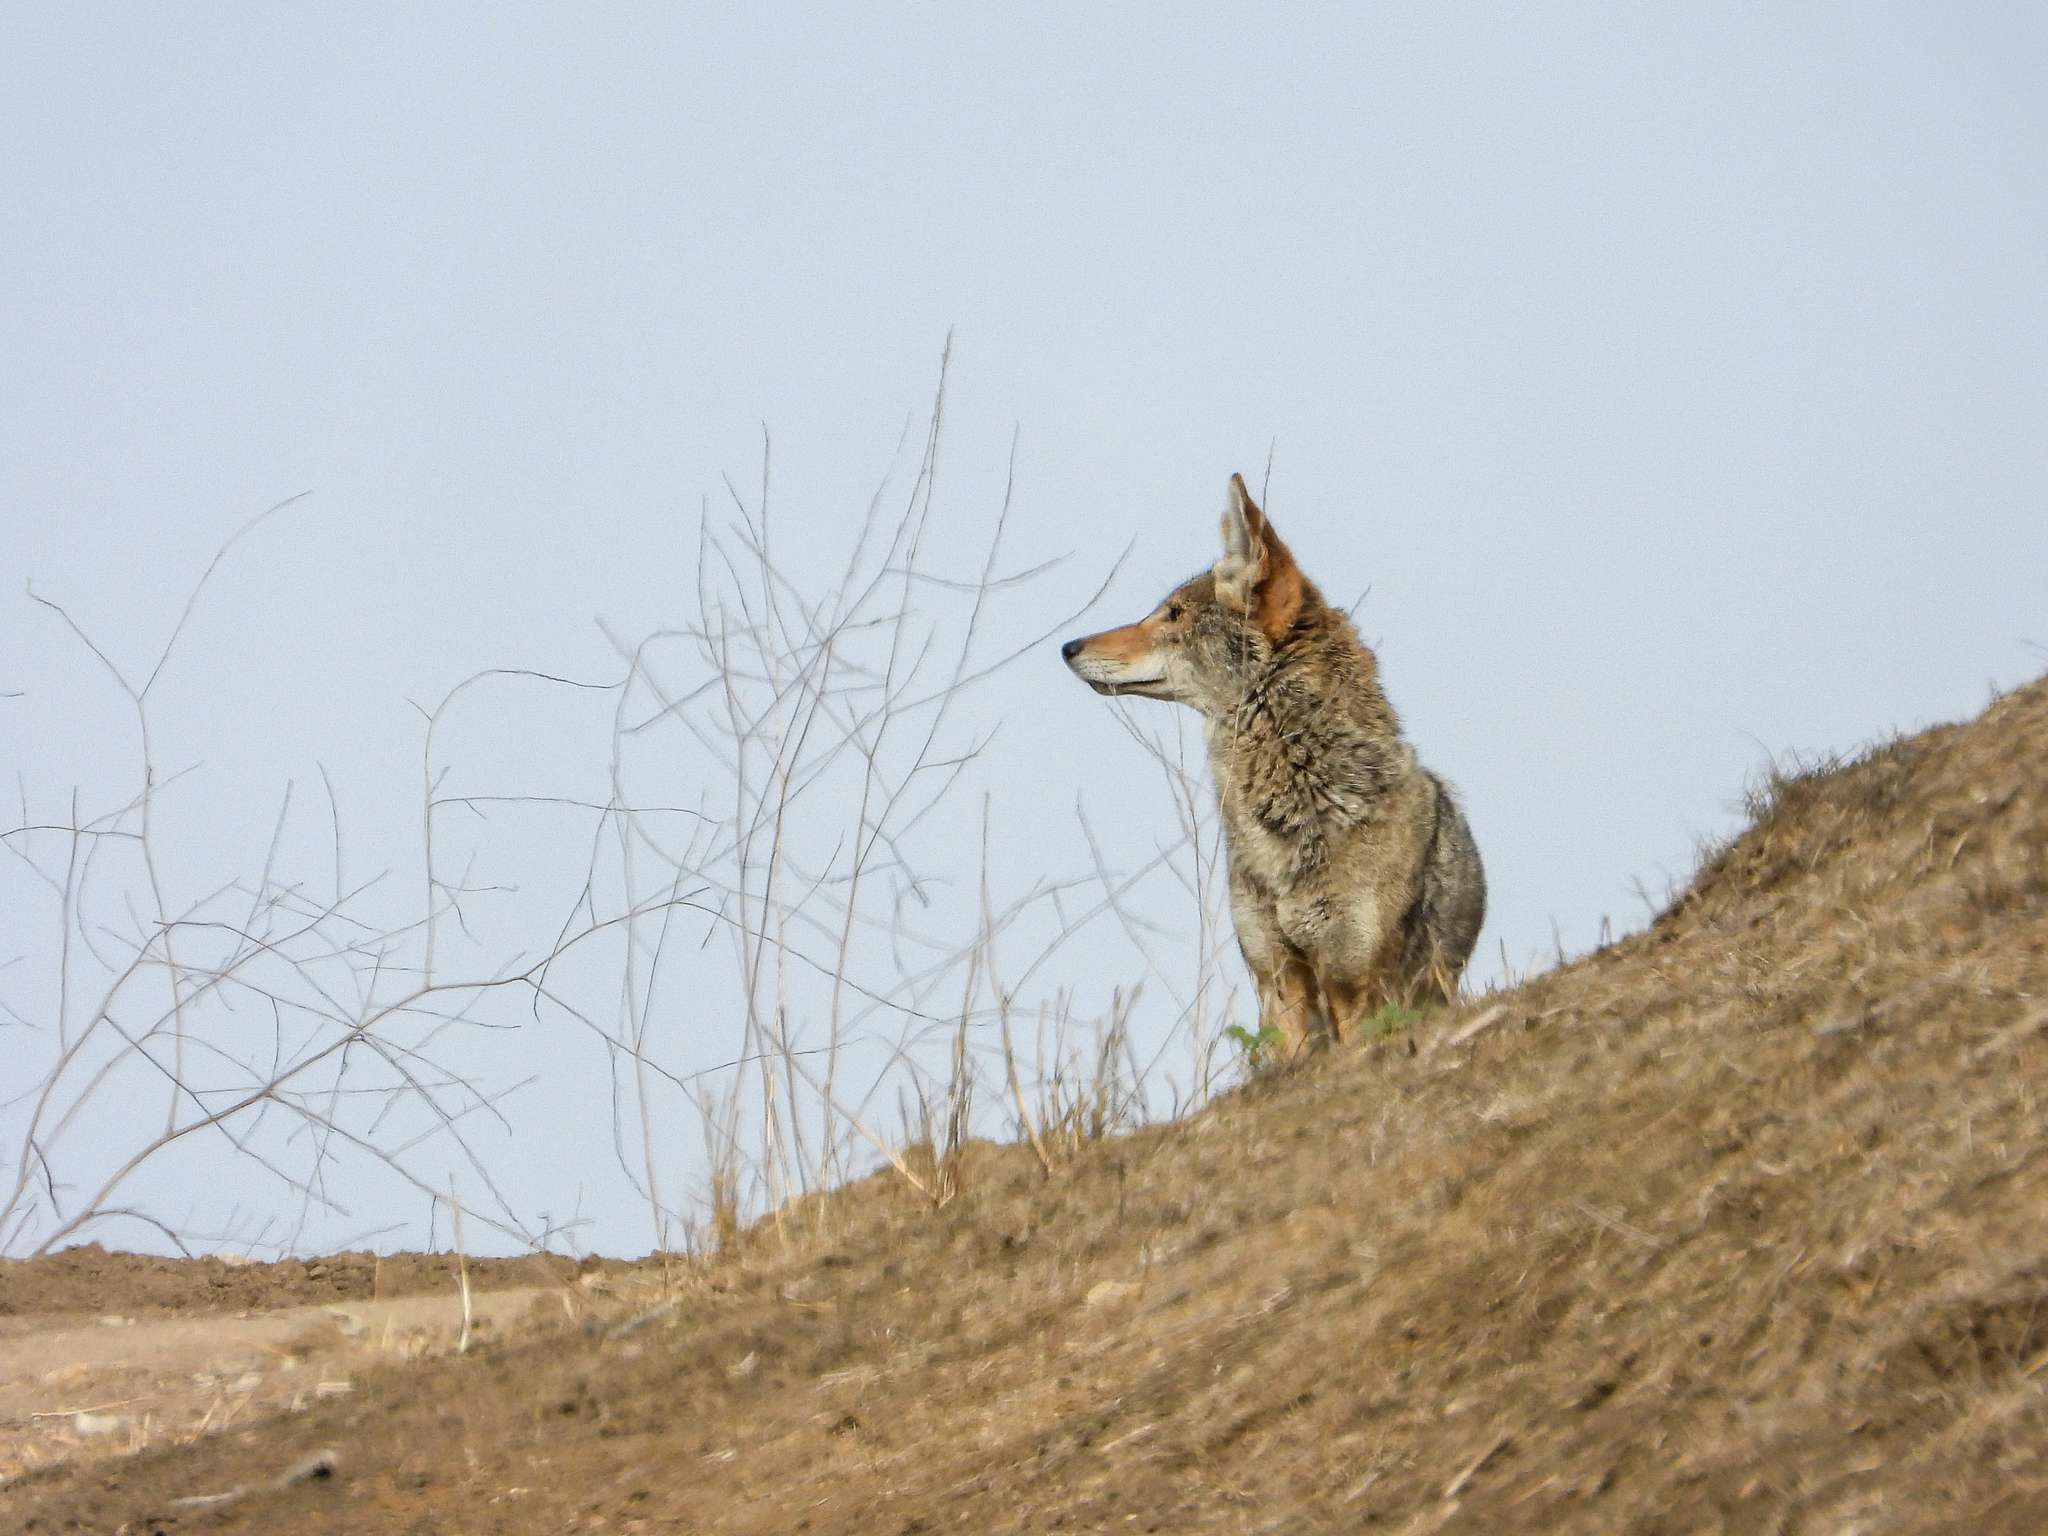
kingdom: Animalia
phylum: Chordata
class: Mammalia
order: Carnivora
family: Canidae
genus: Canis
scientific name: Canis latrans
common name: Coyote
